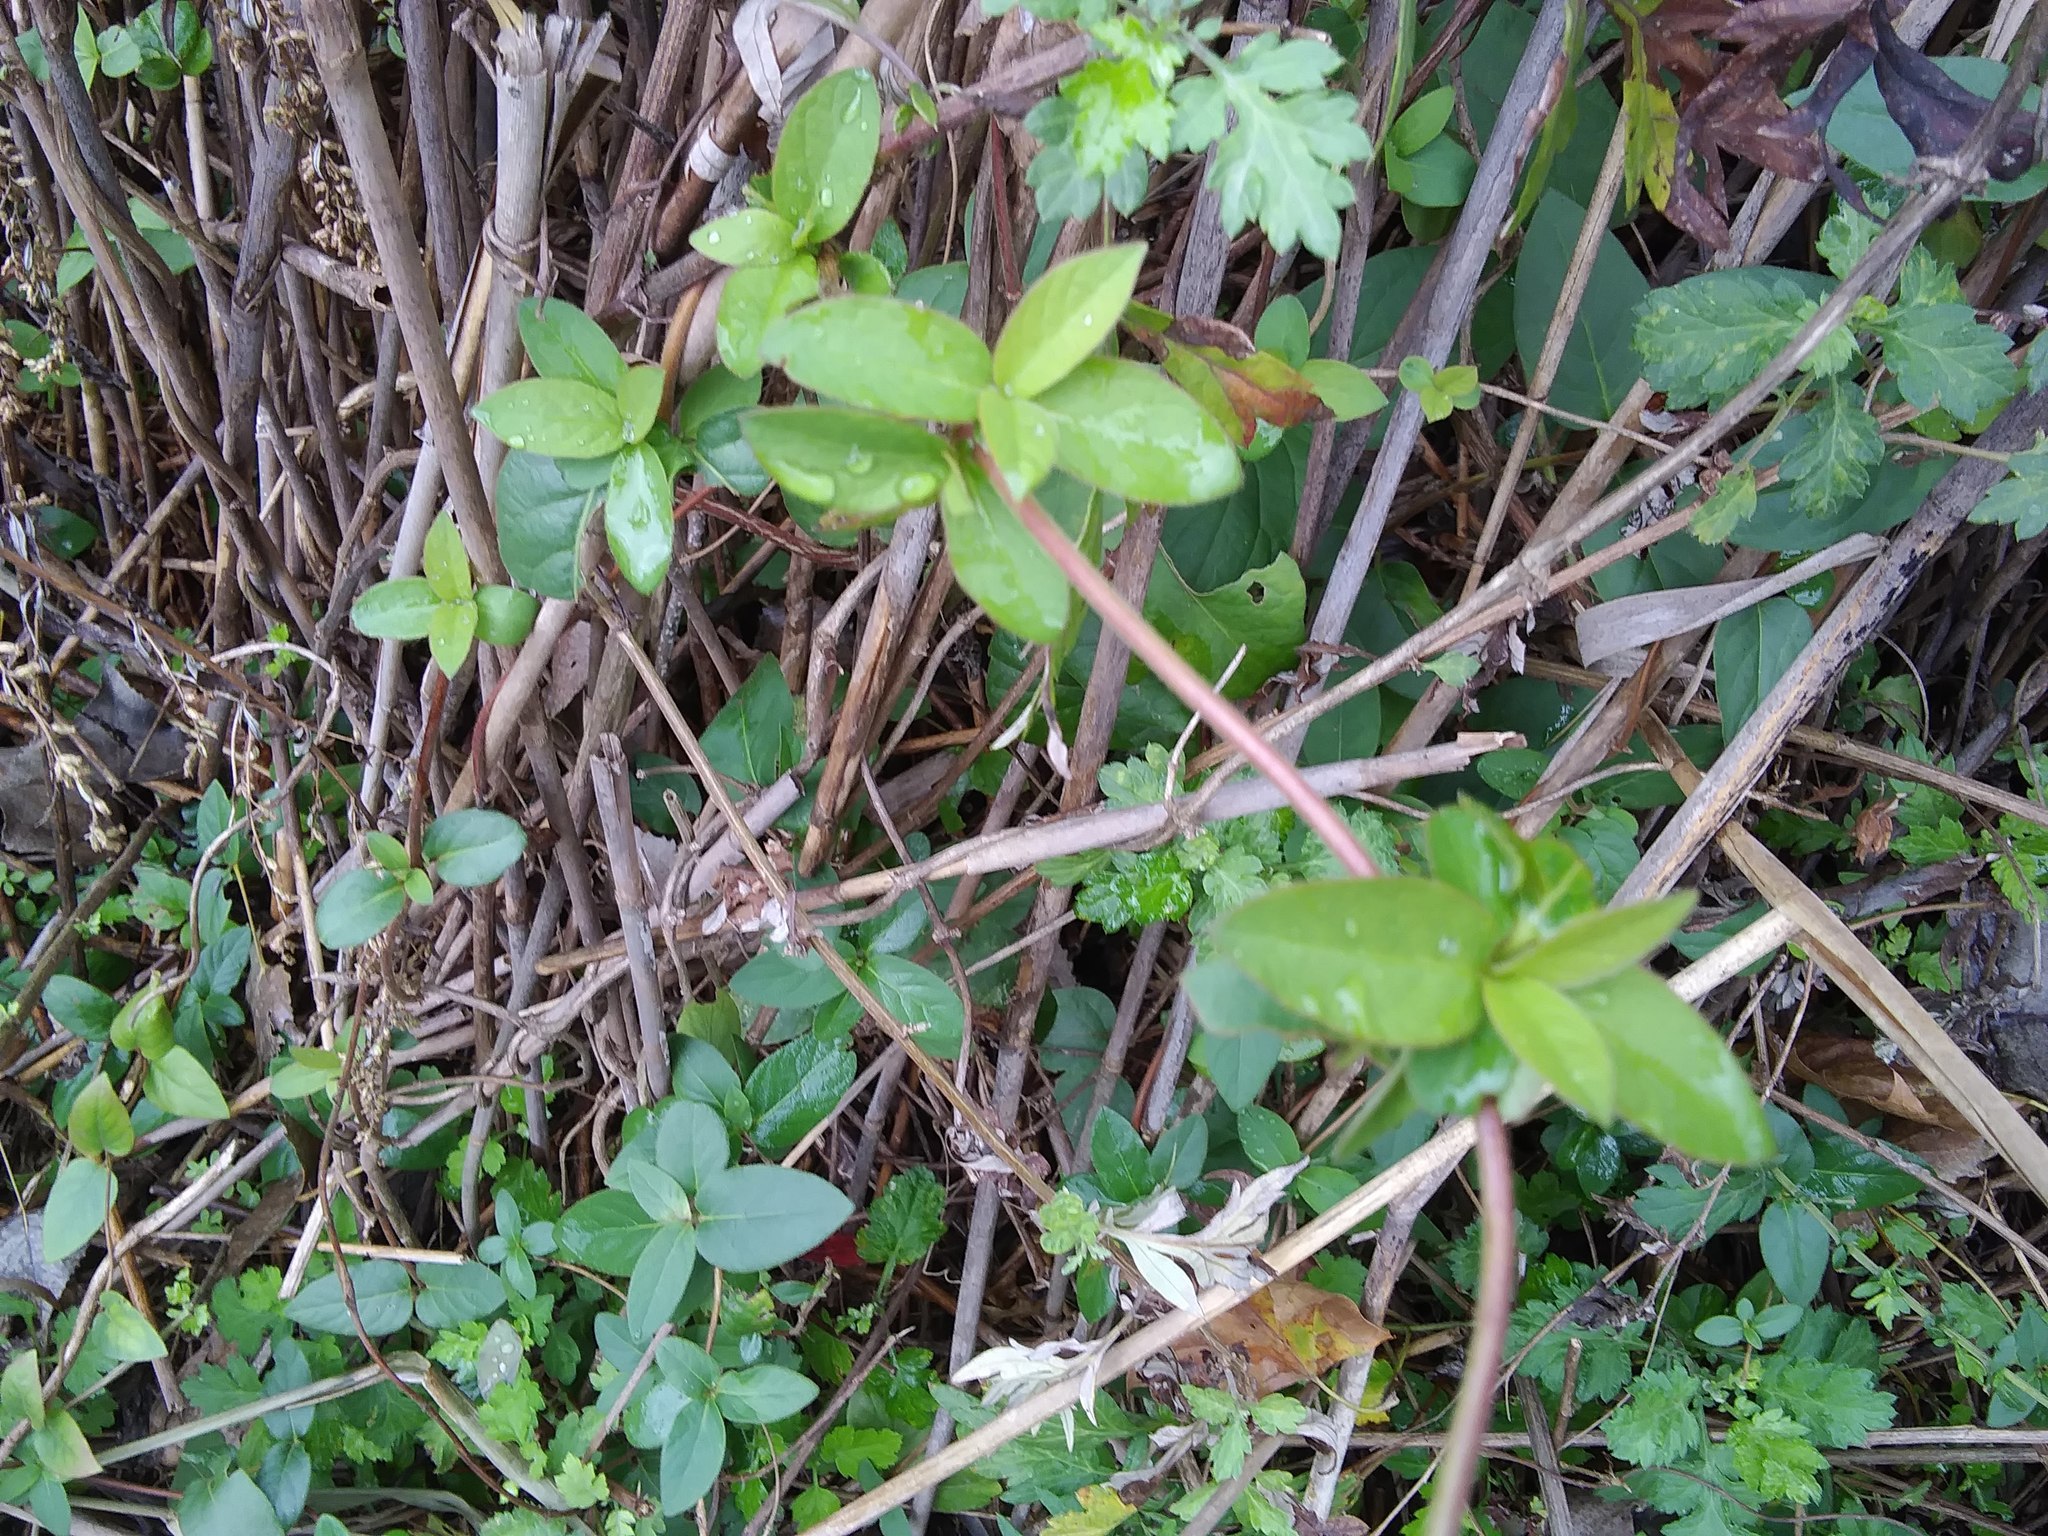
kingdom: Plantae
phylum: Tracheophyta
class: Magnoliopsida
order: Dipsacales
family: Caprifoliaceae
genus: Lonicera
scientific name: Lonicera japonica
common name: Japanese honeysuckle
